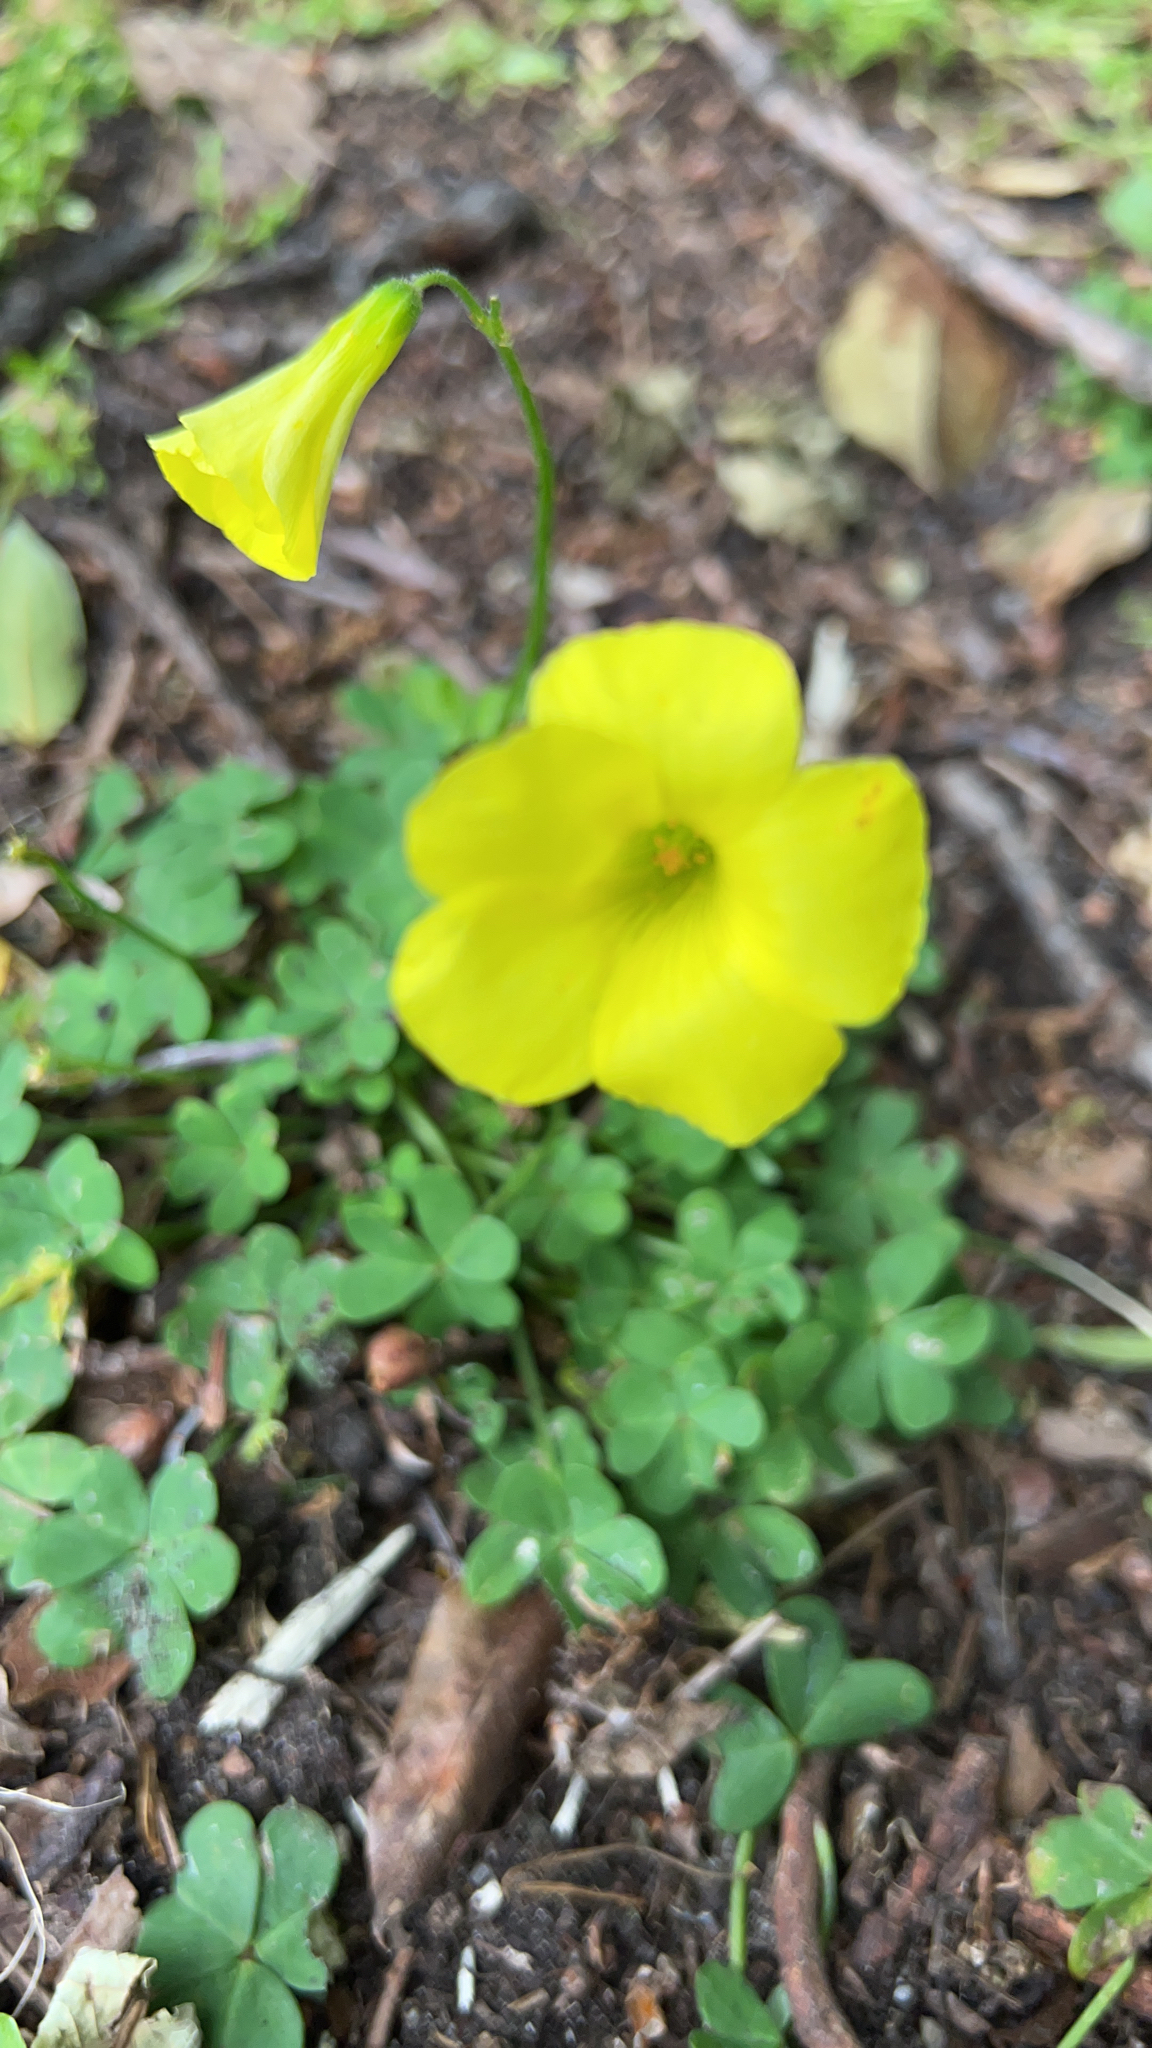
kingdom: Plantae
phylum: Tracheophyta
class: Magnoliopsida
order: Oxalidales
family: Oxalidaceae
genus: Oxalis
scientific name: Oxalis pes-caprae
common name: Bermuda-buttercup
